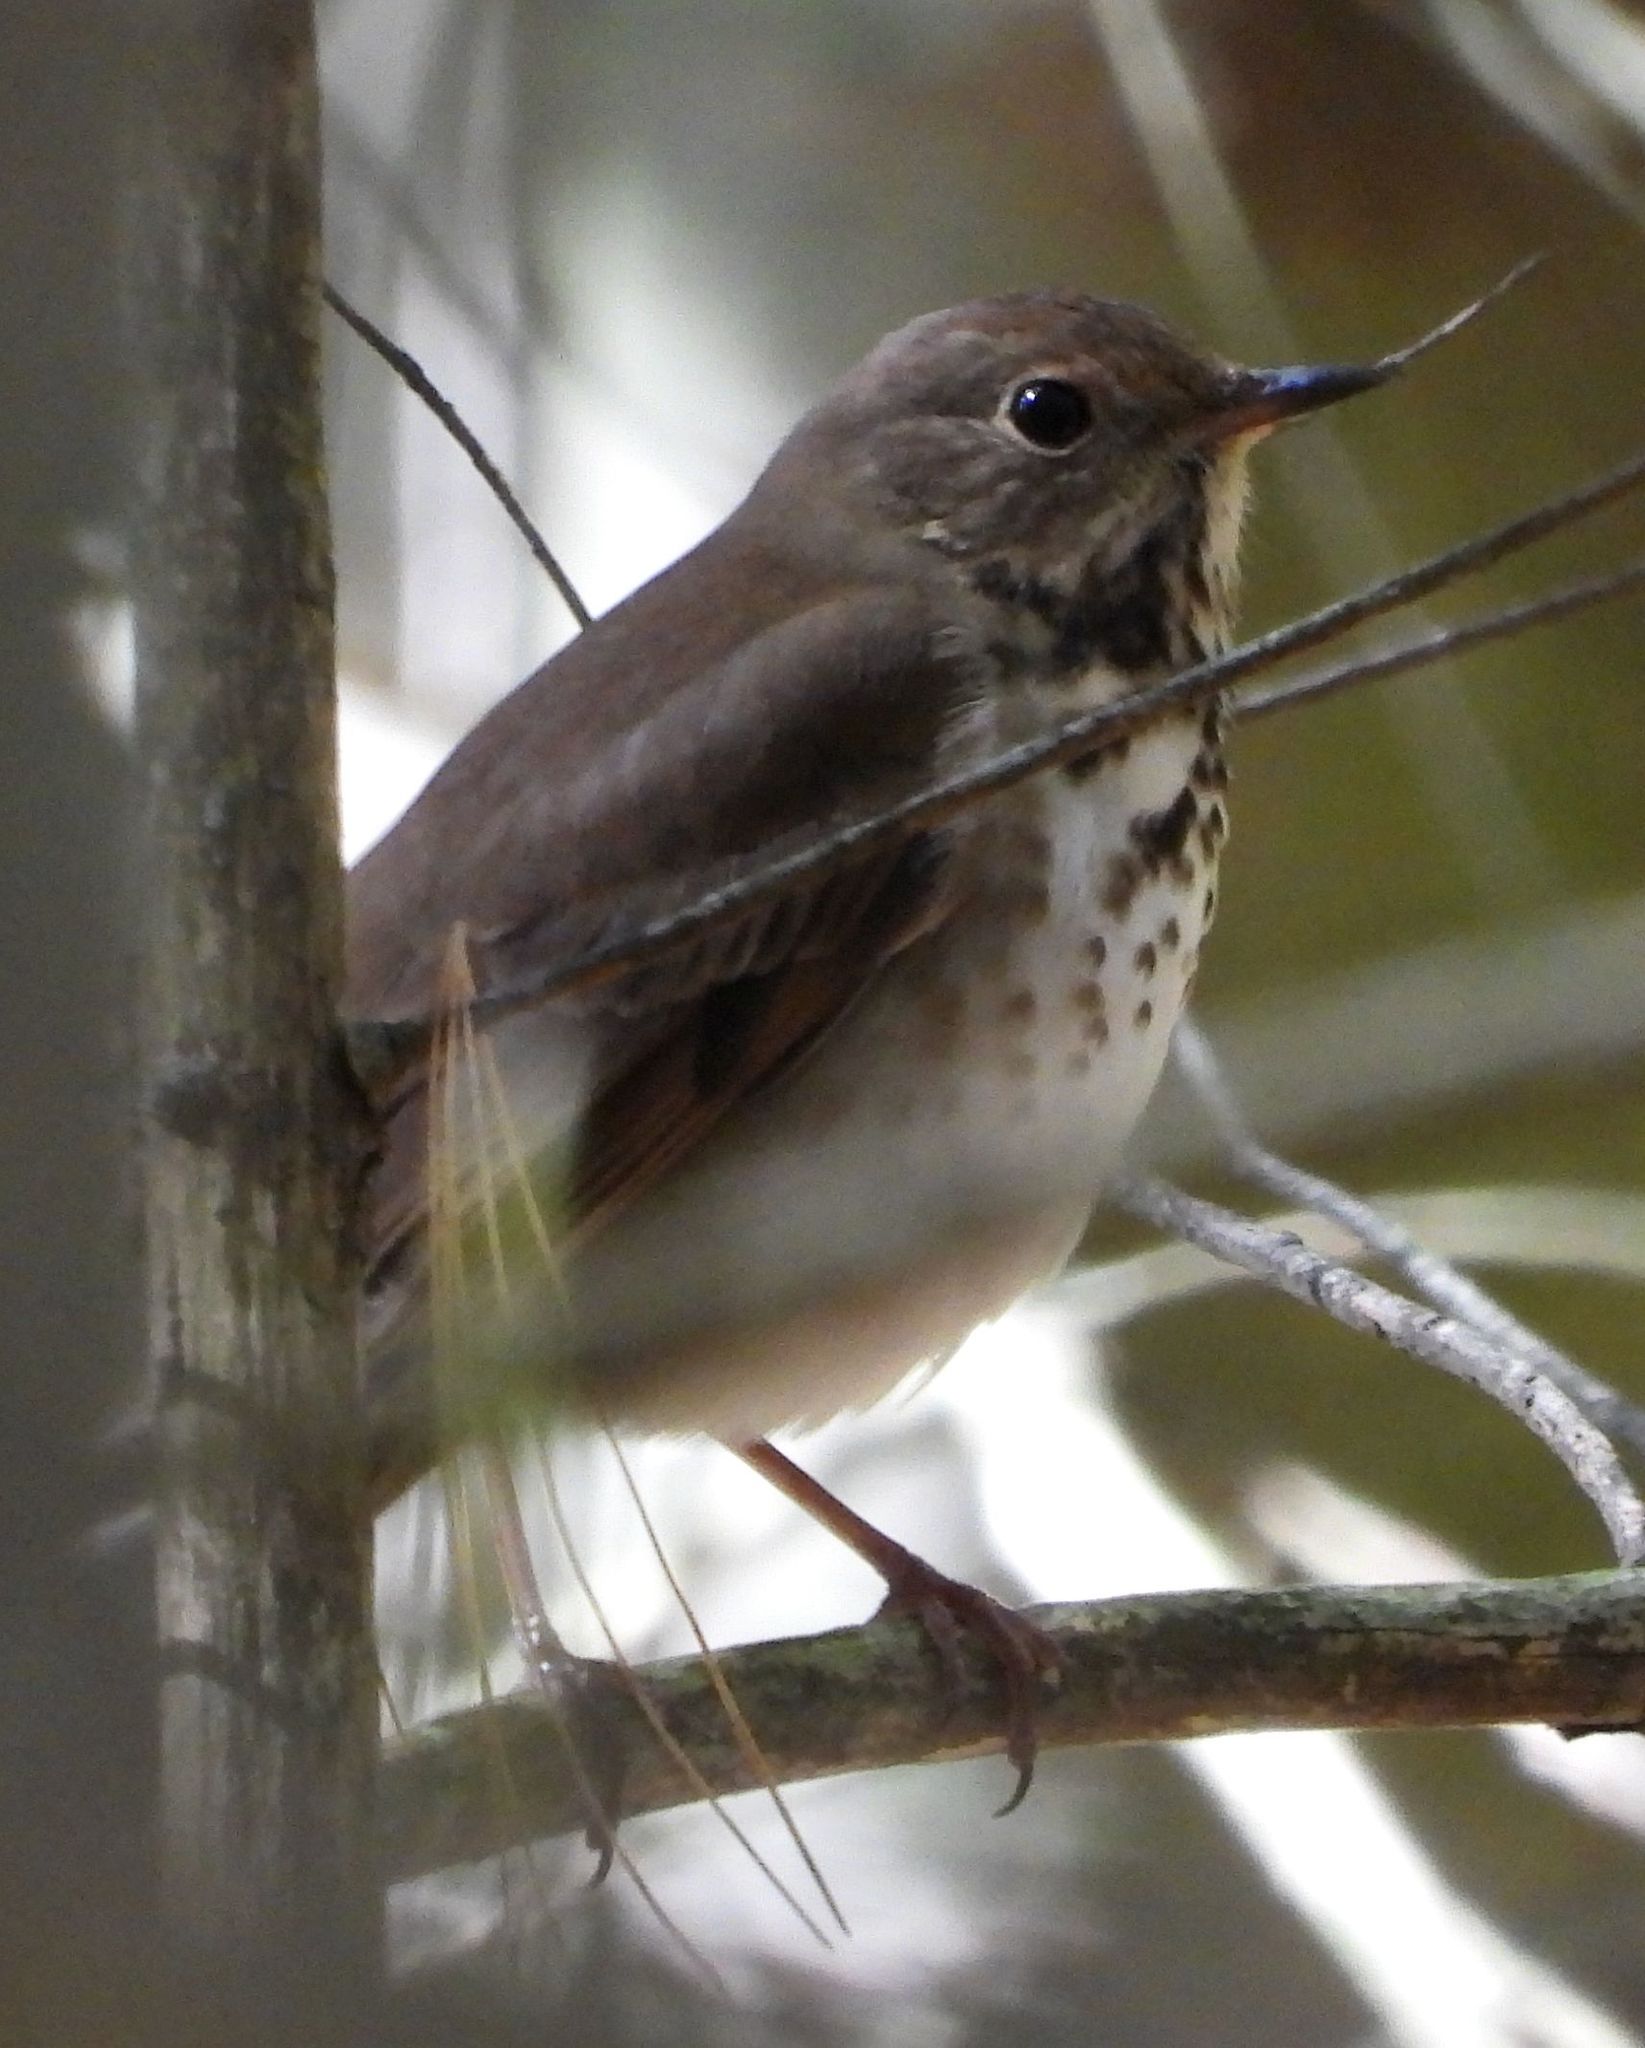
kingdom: Animalia
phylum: Chordata
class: Aves
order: Passeriformes
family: Turdidae
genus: Catharus
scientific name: Catharus guttatus
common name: Hermit thrush
